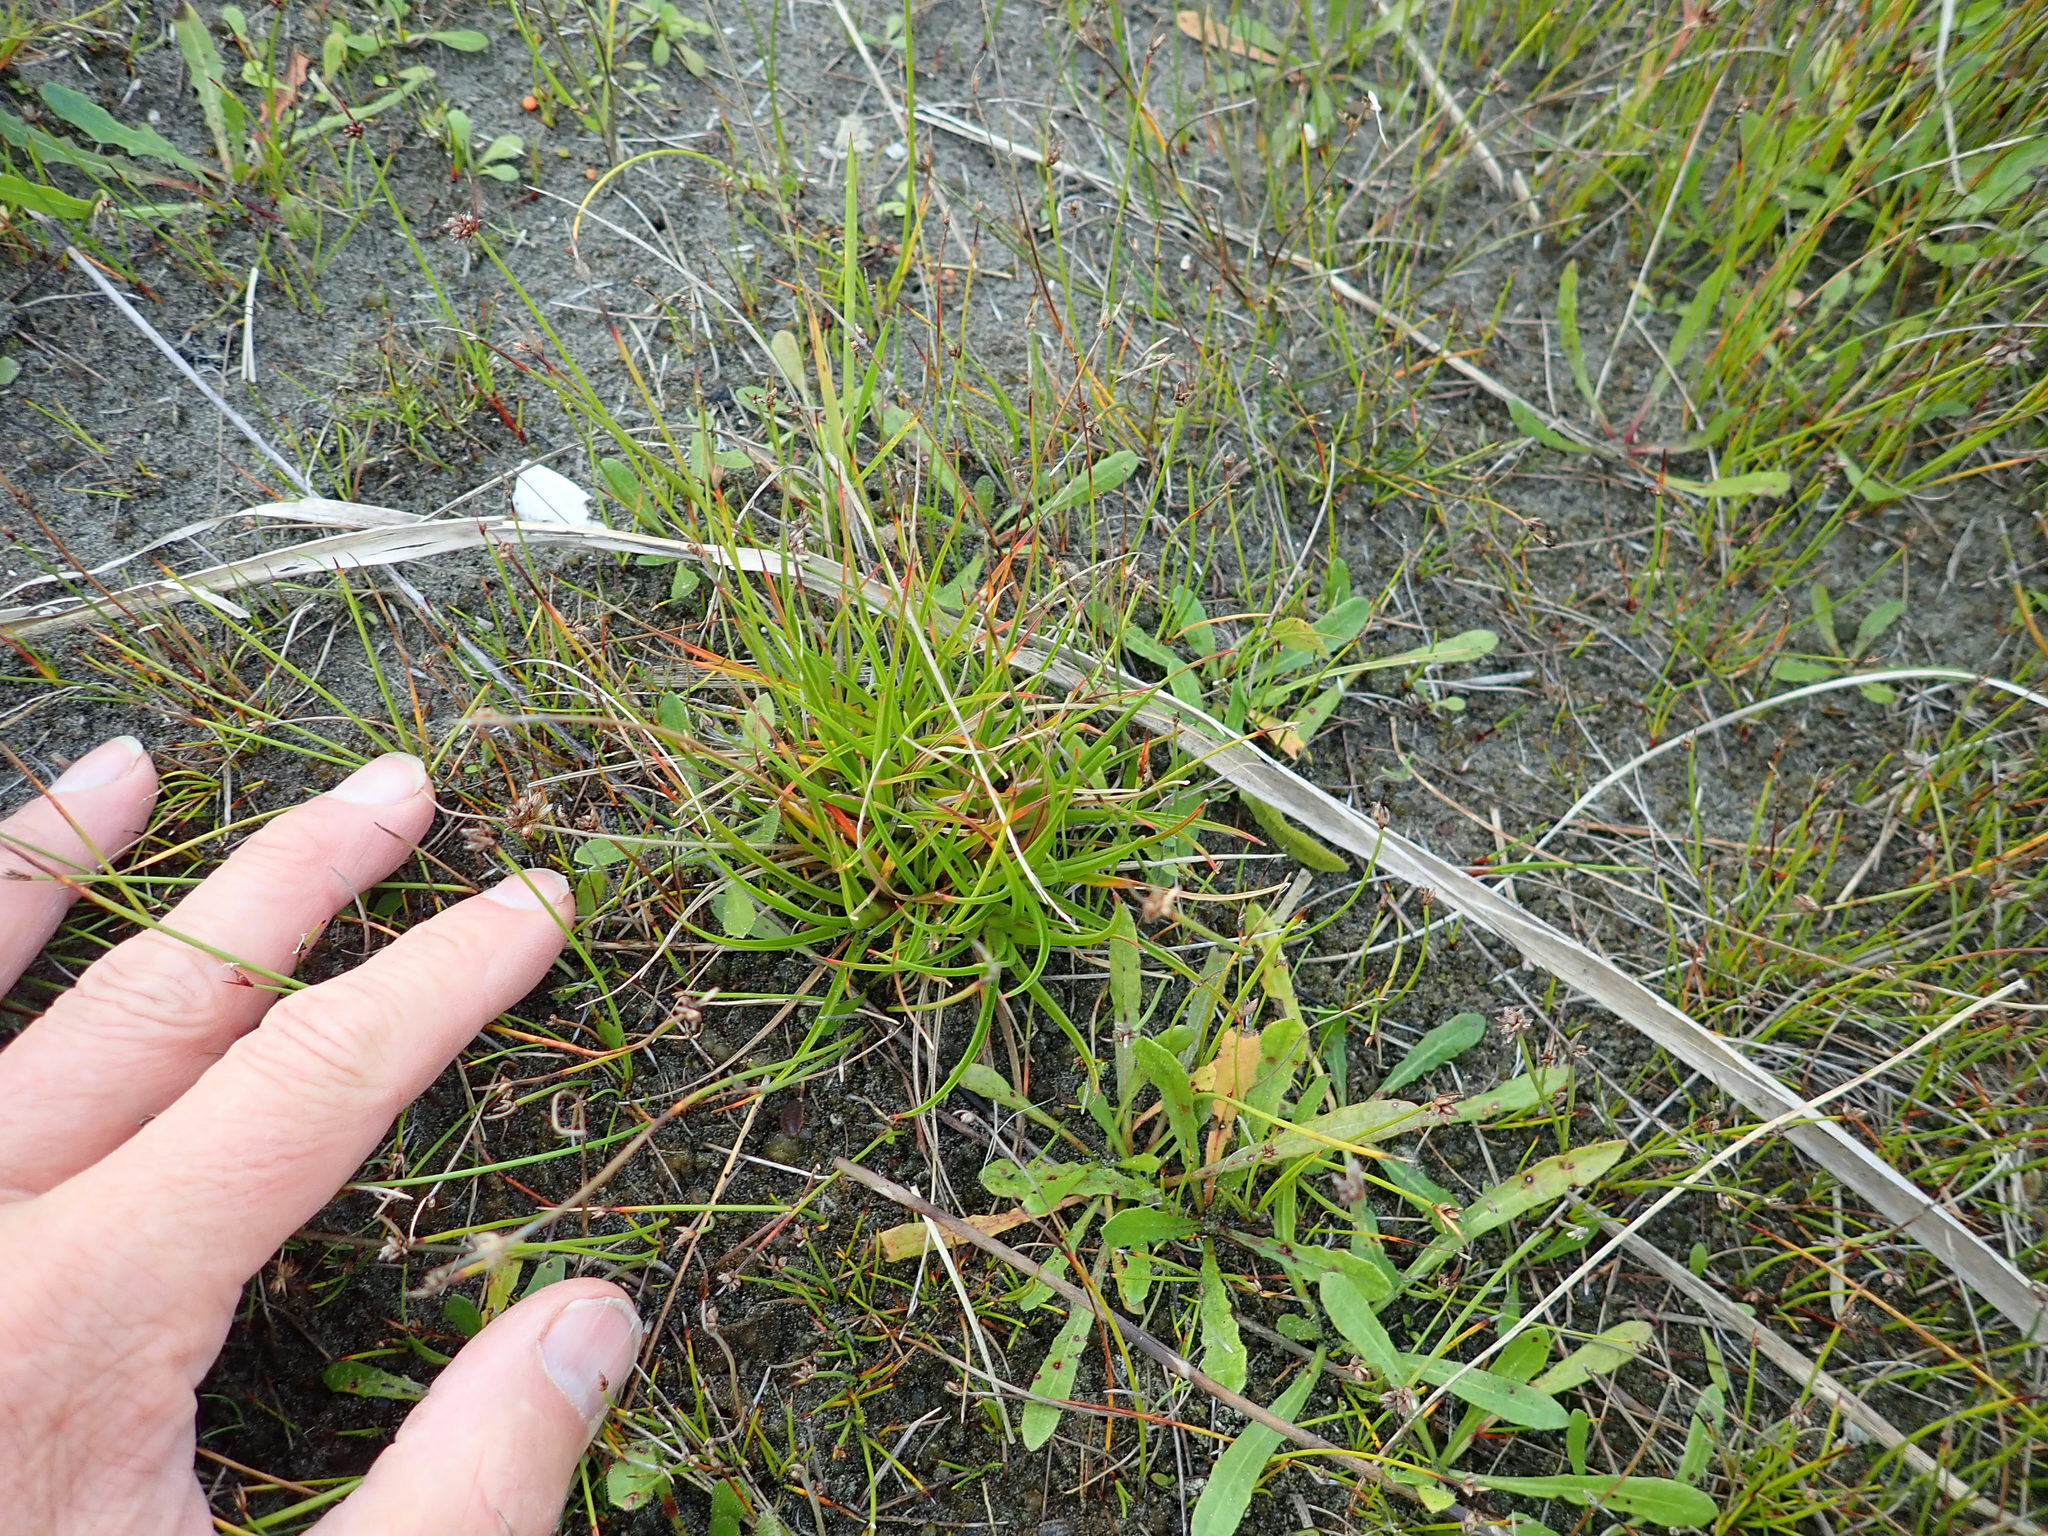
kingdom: Plantae
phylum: Tracheophyta
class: Liliopsida
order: Poales
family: Juncaceae
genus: Juncus
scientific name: Juncus caespiticius
